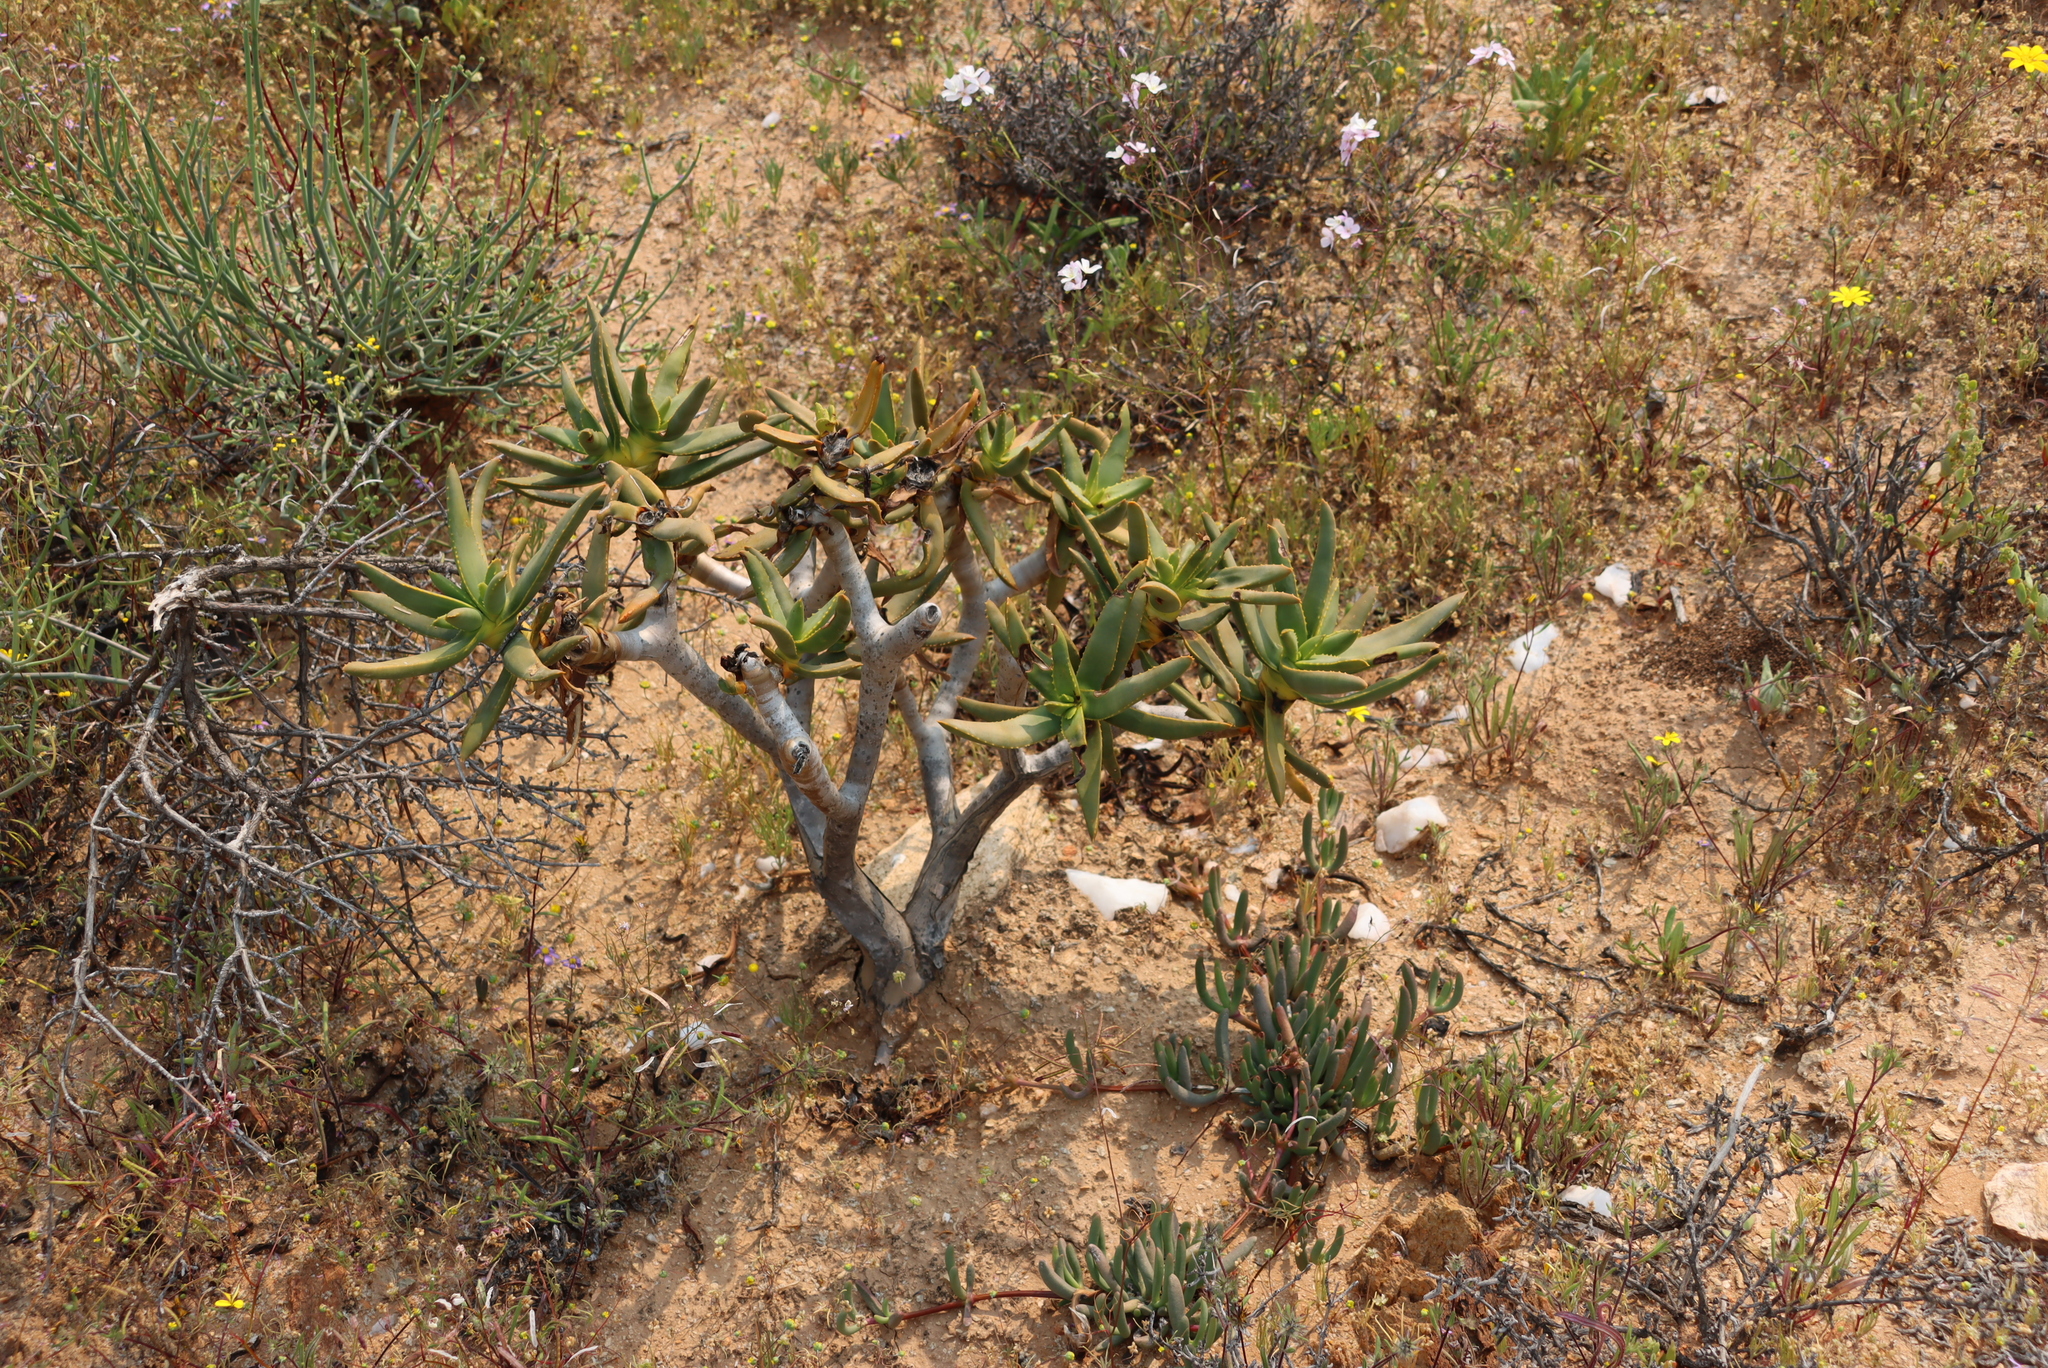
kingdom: Plantae
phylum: Tracheophyta
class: Liliopsida
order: Asparagales
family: Asphodelaceae
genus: Aloidendron
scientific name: Aloidendron ramosissimum
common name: Bush quiver tree
